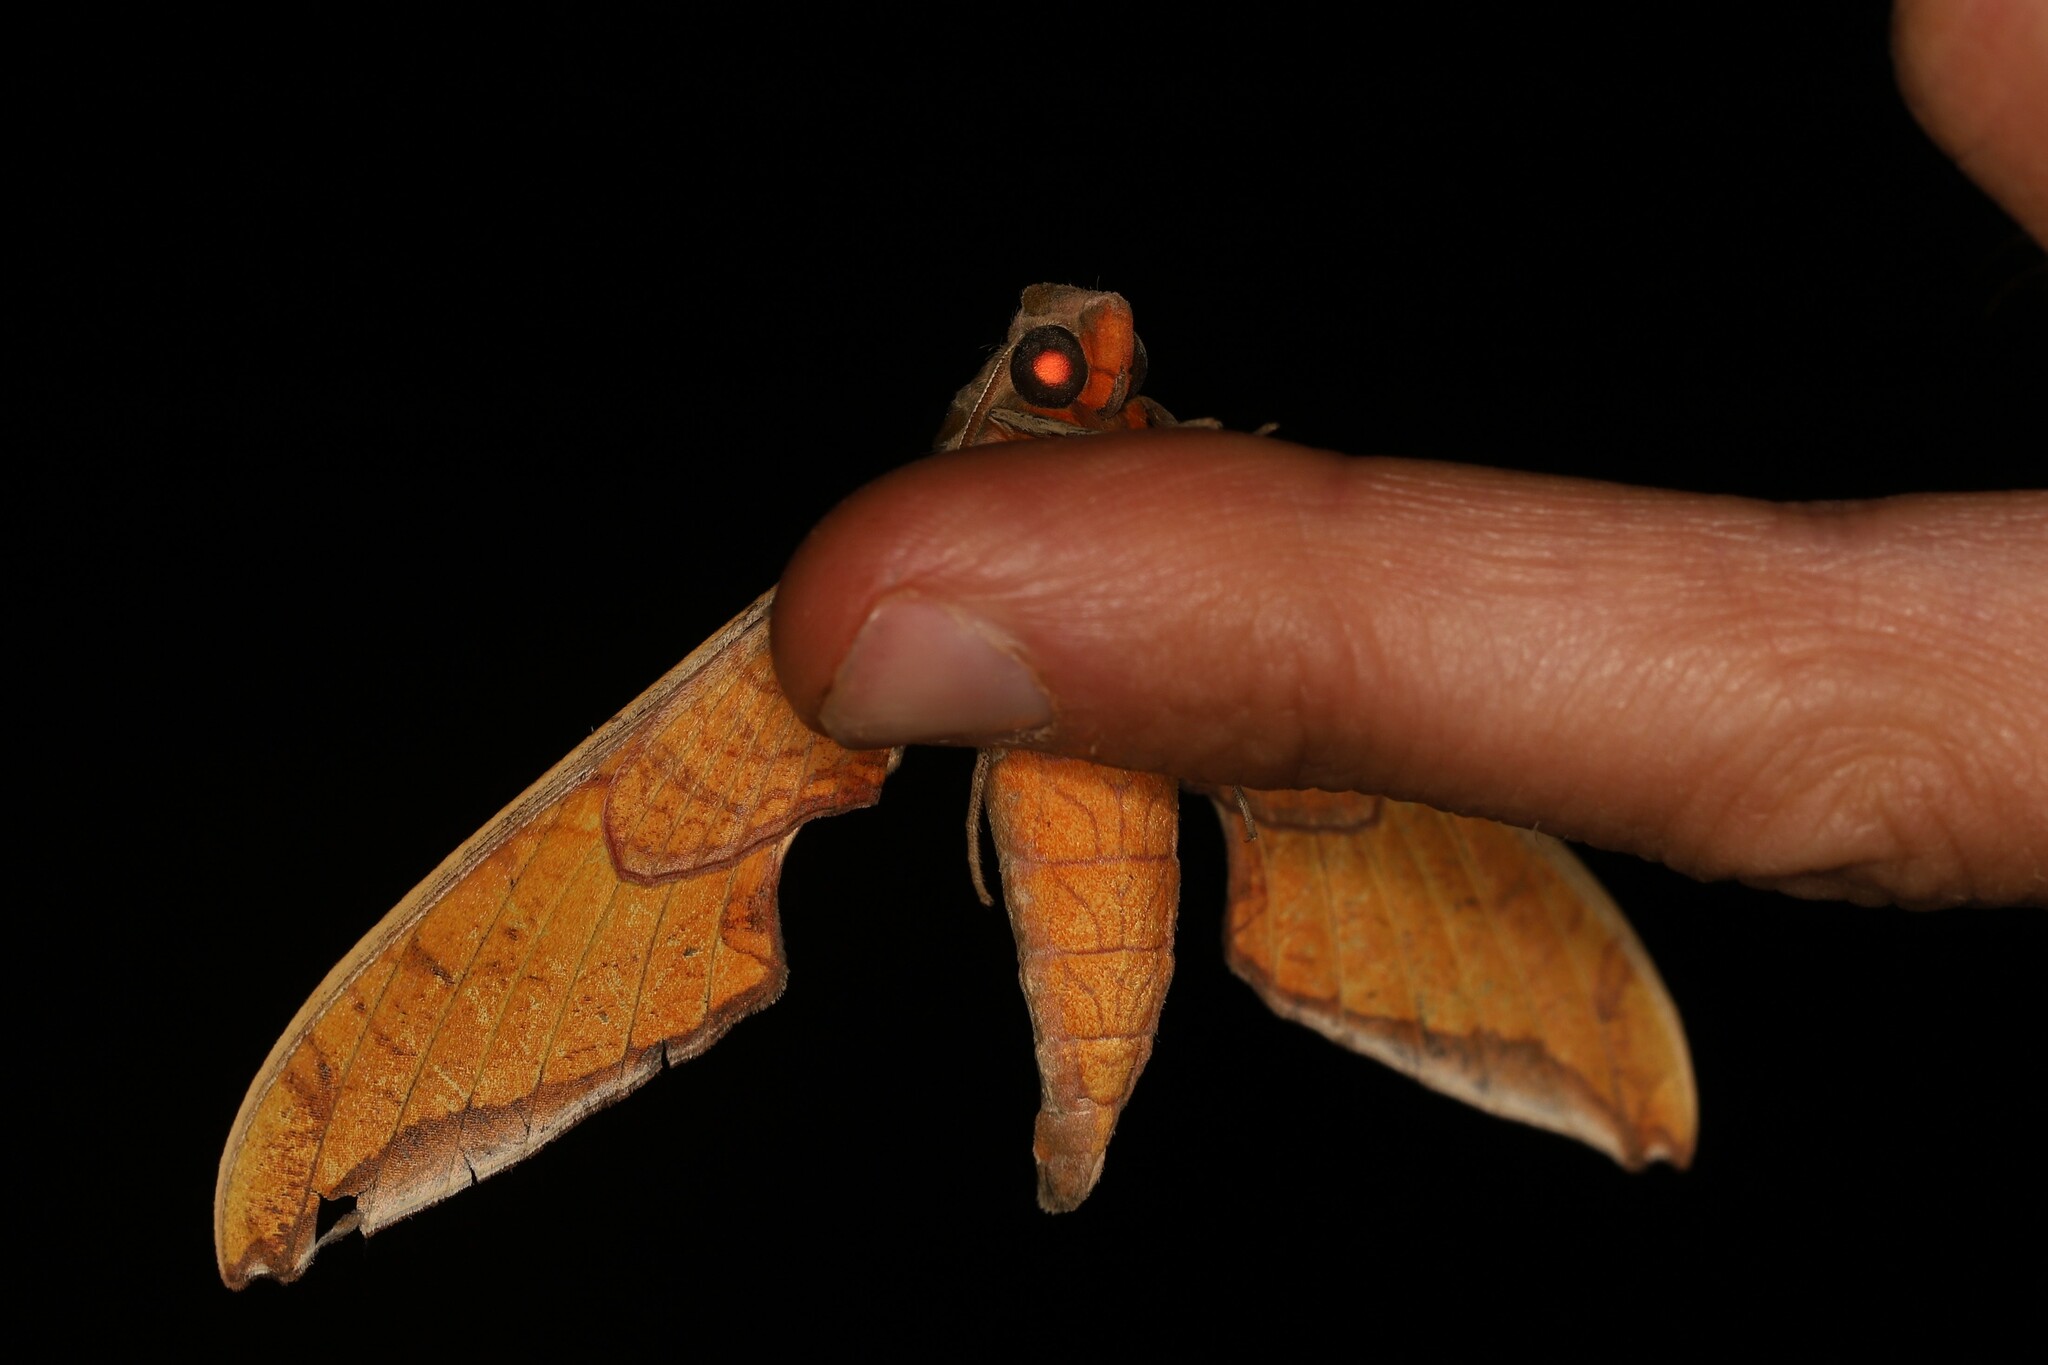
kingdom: Animalia
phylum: Arthropoda
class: Insecta
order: Lepidoptera
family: Sphingidae
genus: Protambulyx
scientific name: Protambulyx strigilis
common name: Streaked sphinx
